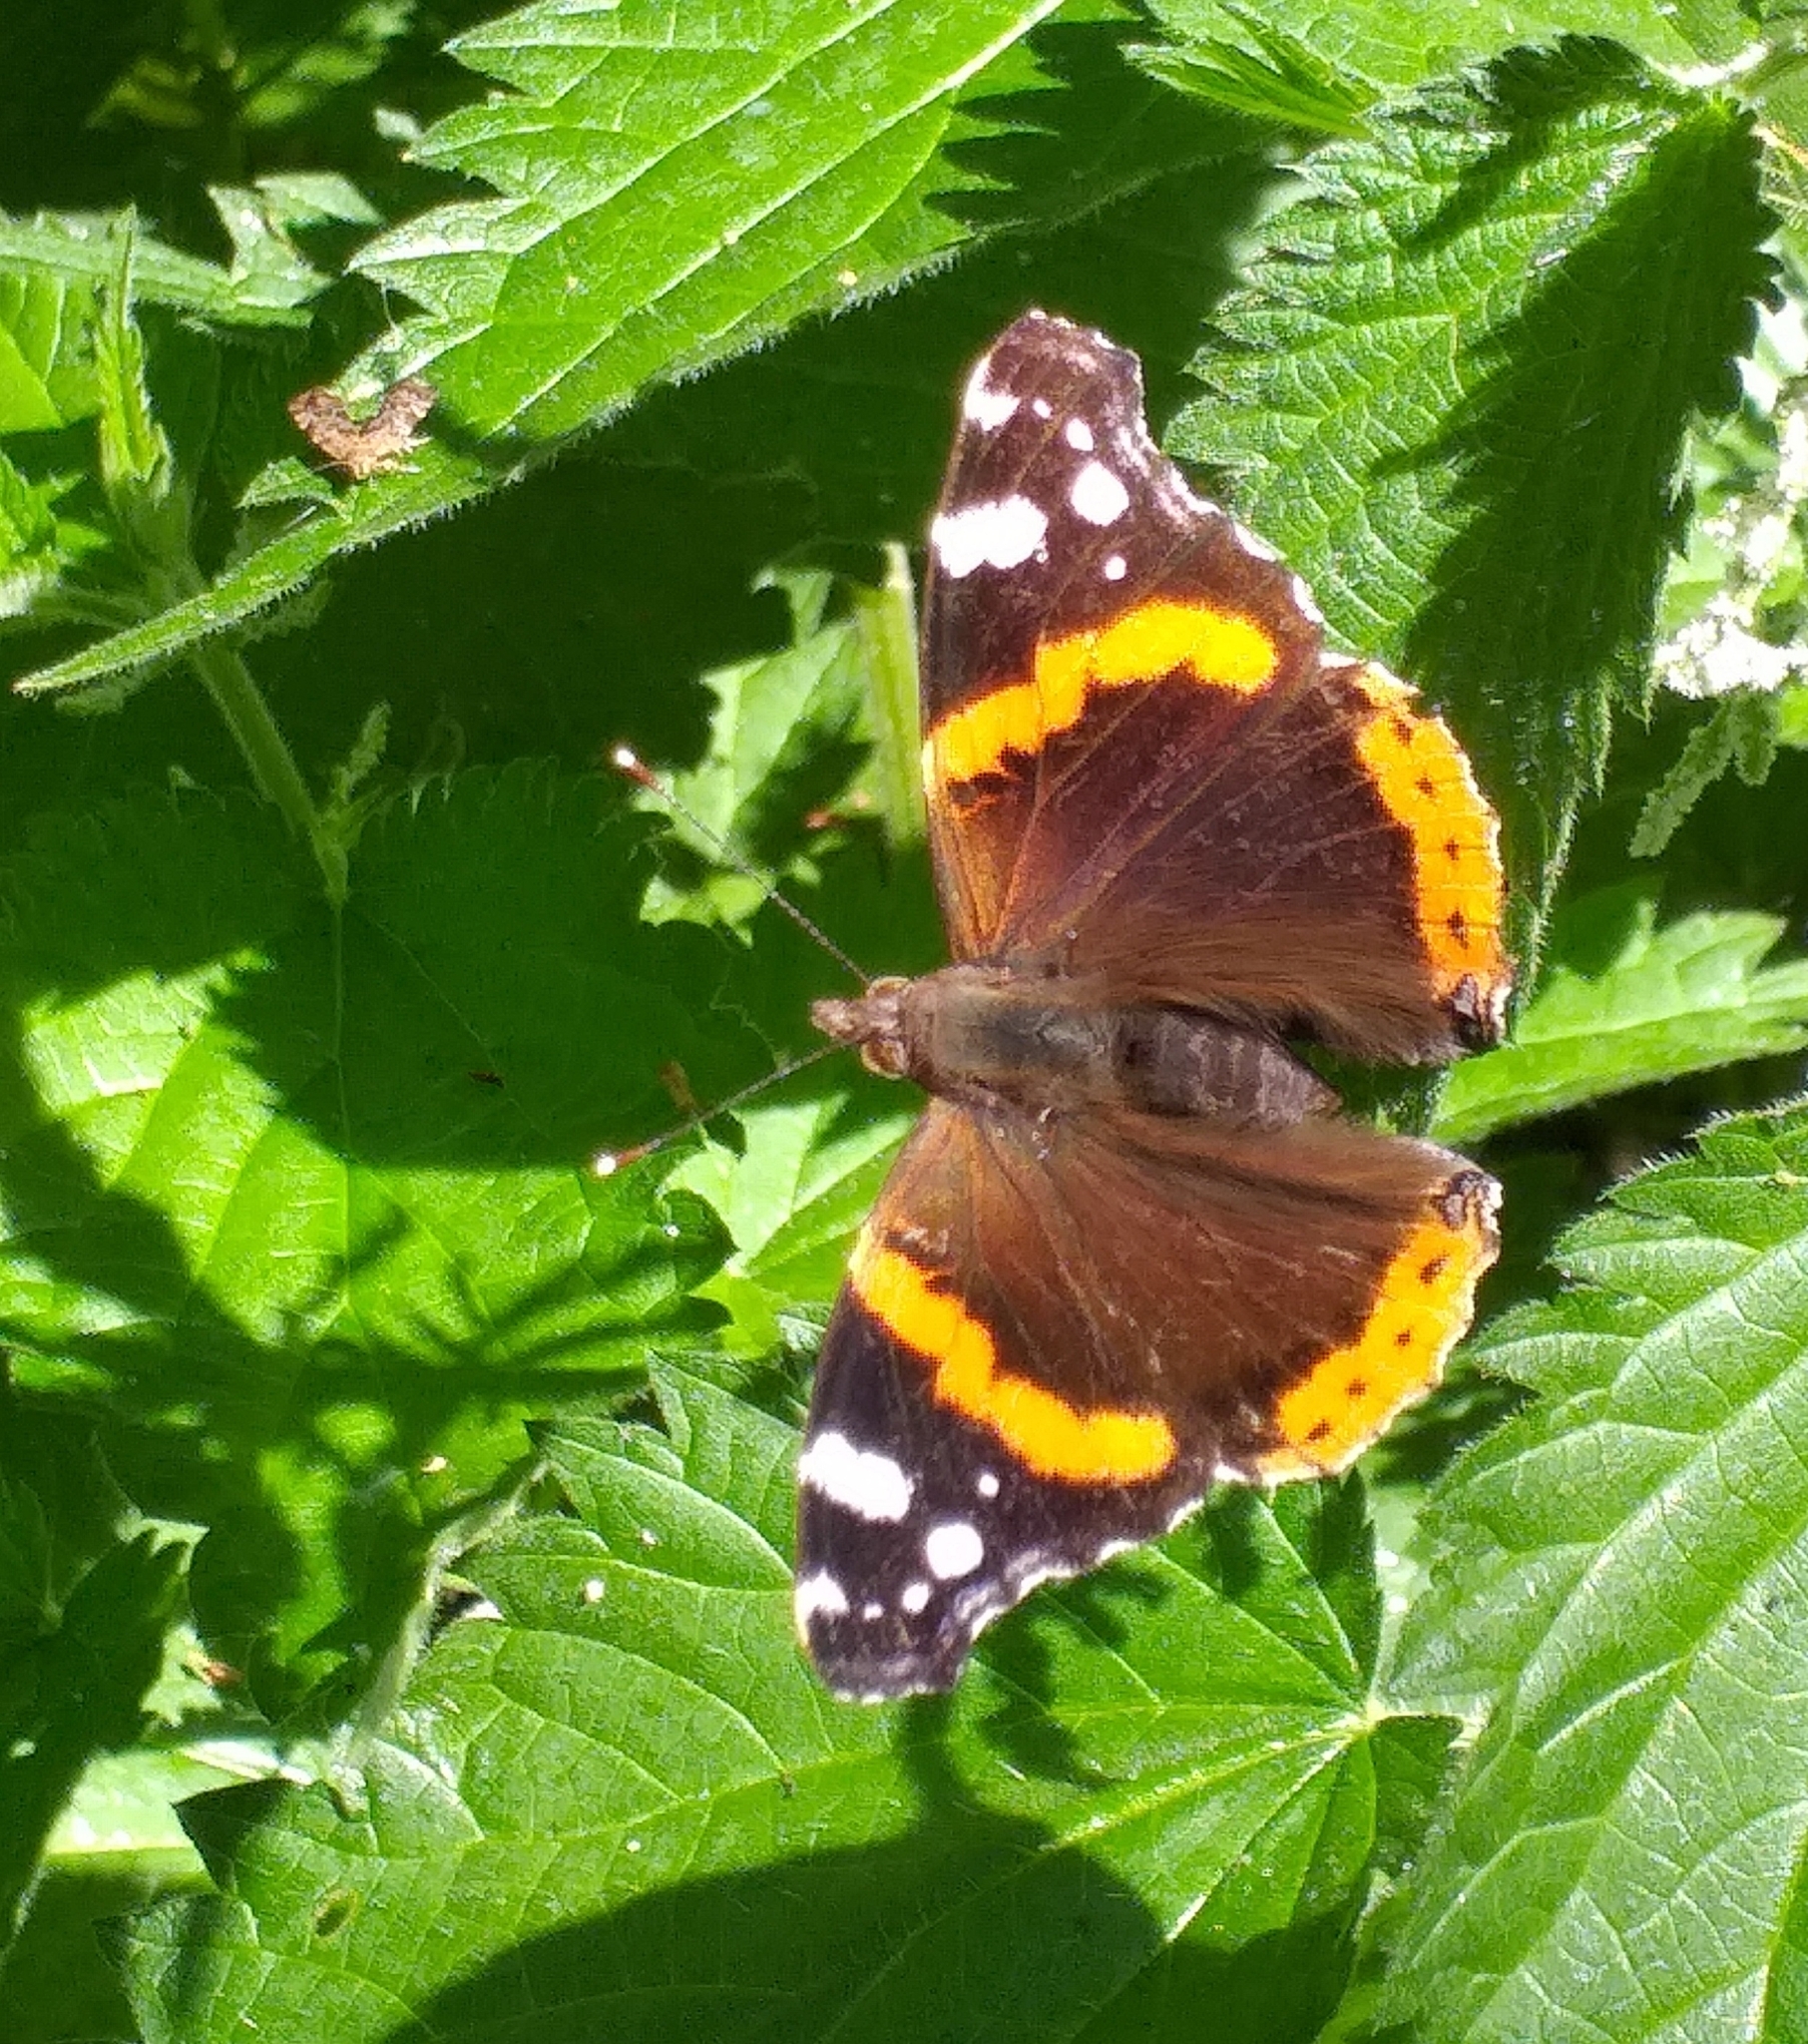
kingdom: Animalia
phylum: Arthropoda
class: Insecta
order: Lepidoptera
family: Nymphalidae
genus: Vanessa
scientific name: Vanessa atalanta
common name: Red admiral
